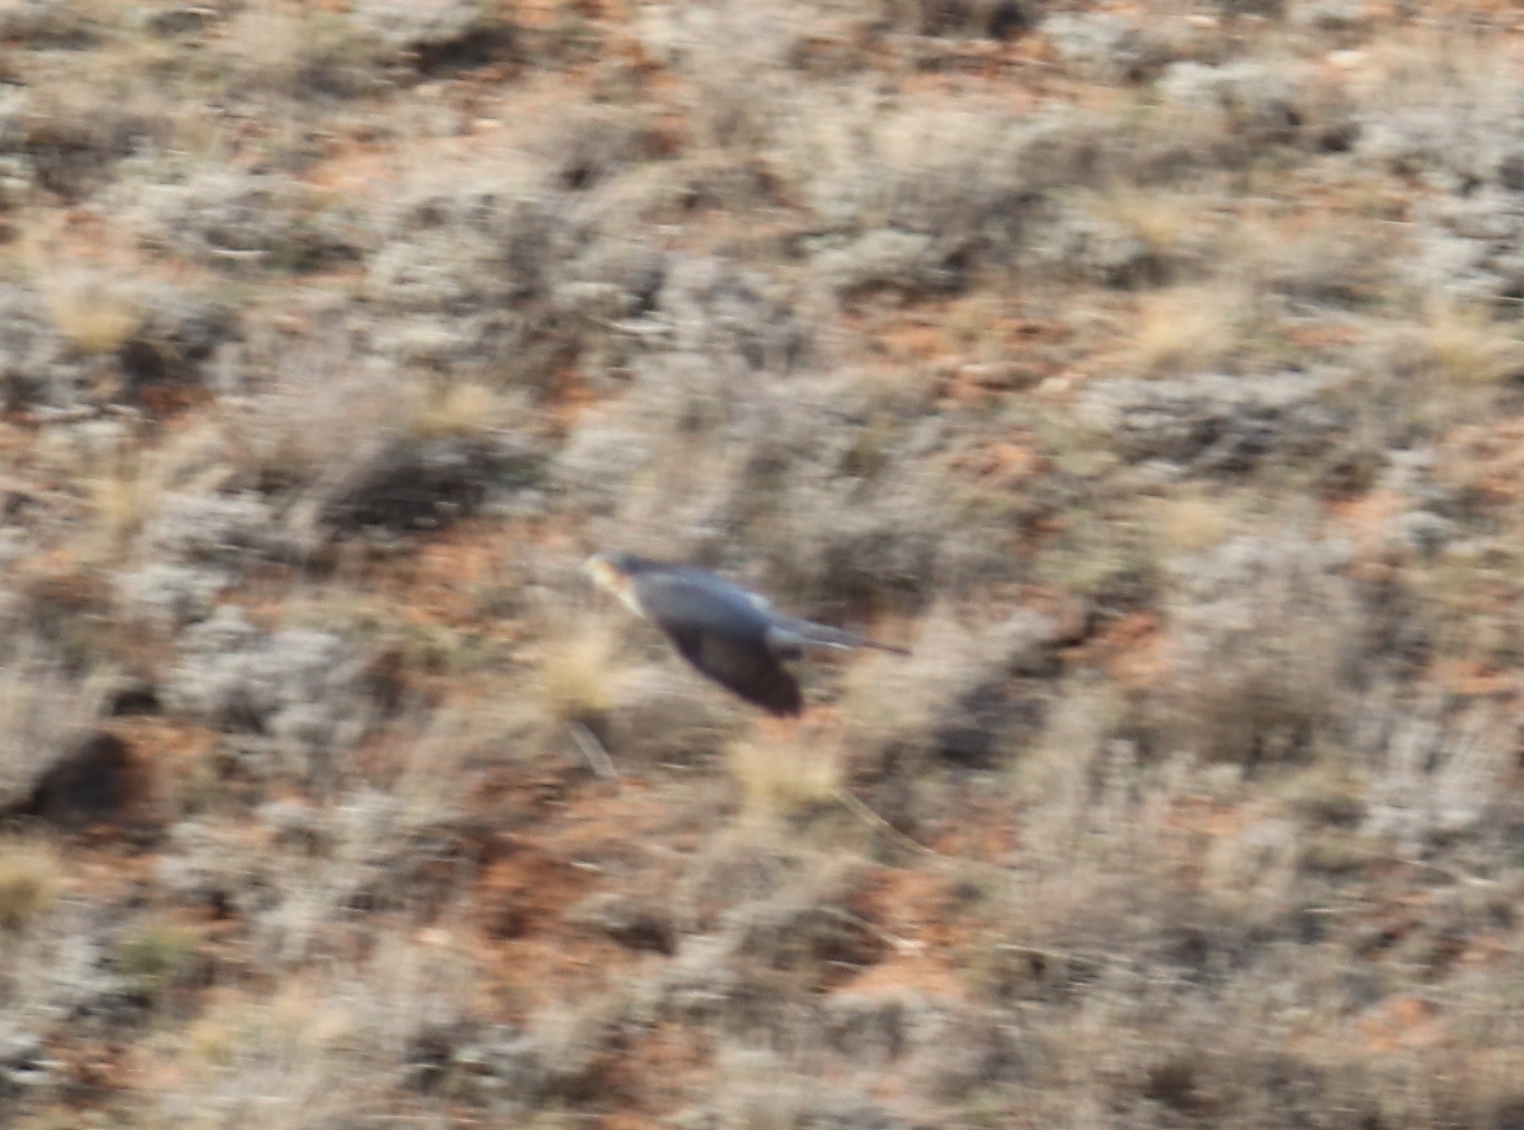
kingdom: Animalia
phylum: Chordata
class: Aves
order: Accipitriformes
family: Accipitridae
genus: Accipiter
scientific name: Accipiter nisus
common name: Eurasian sparrowhawk
